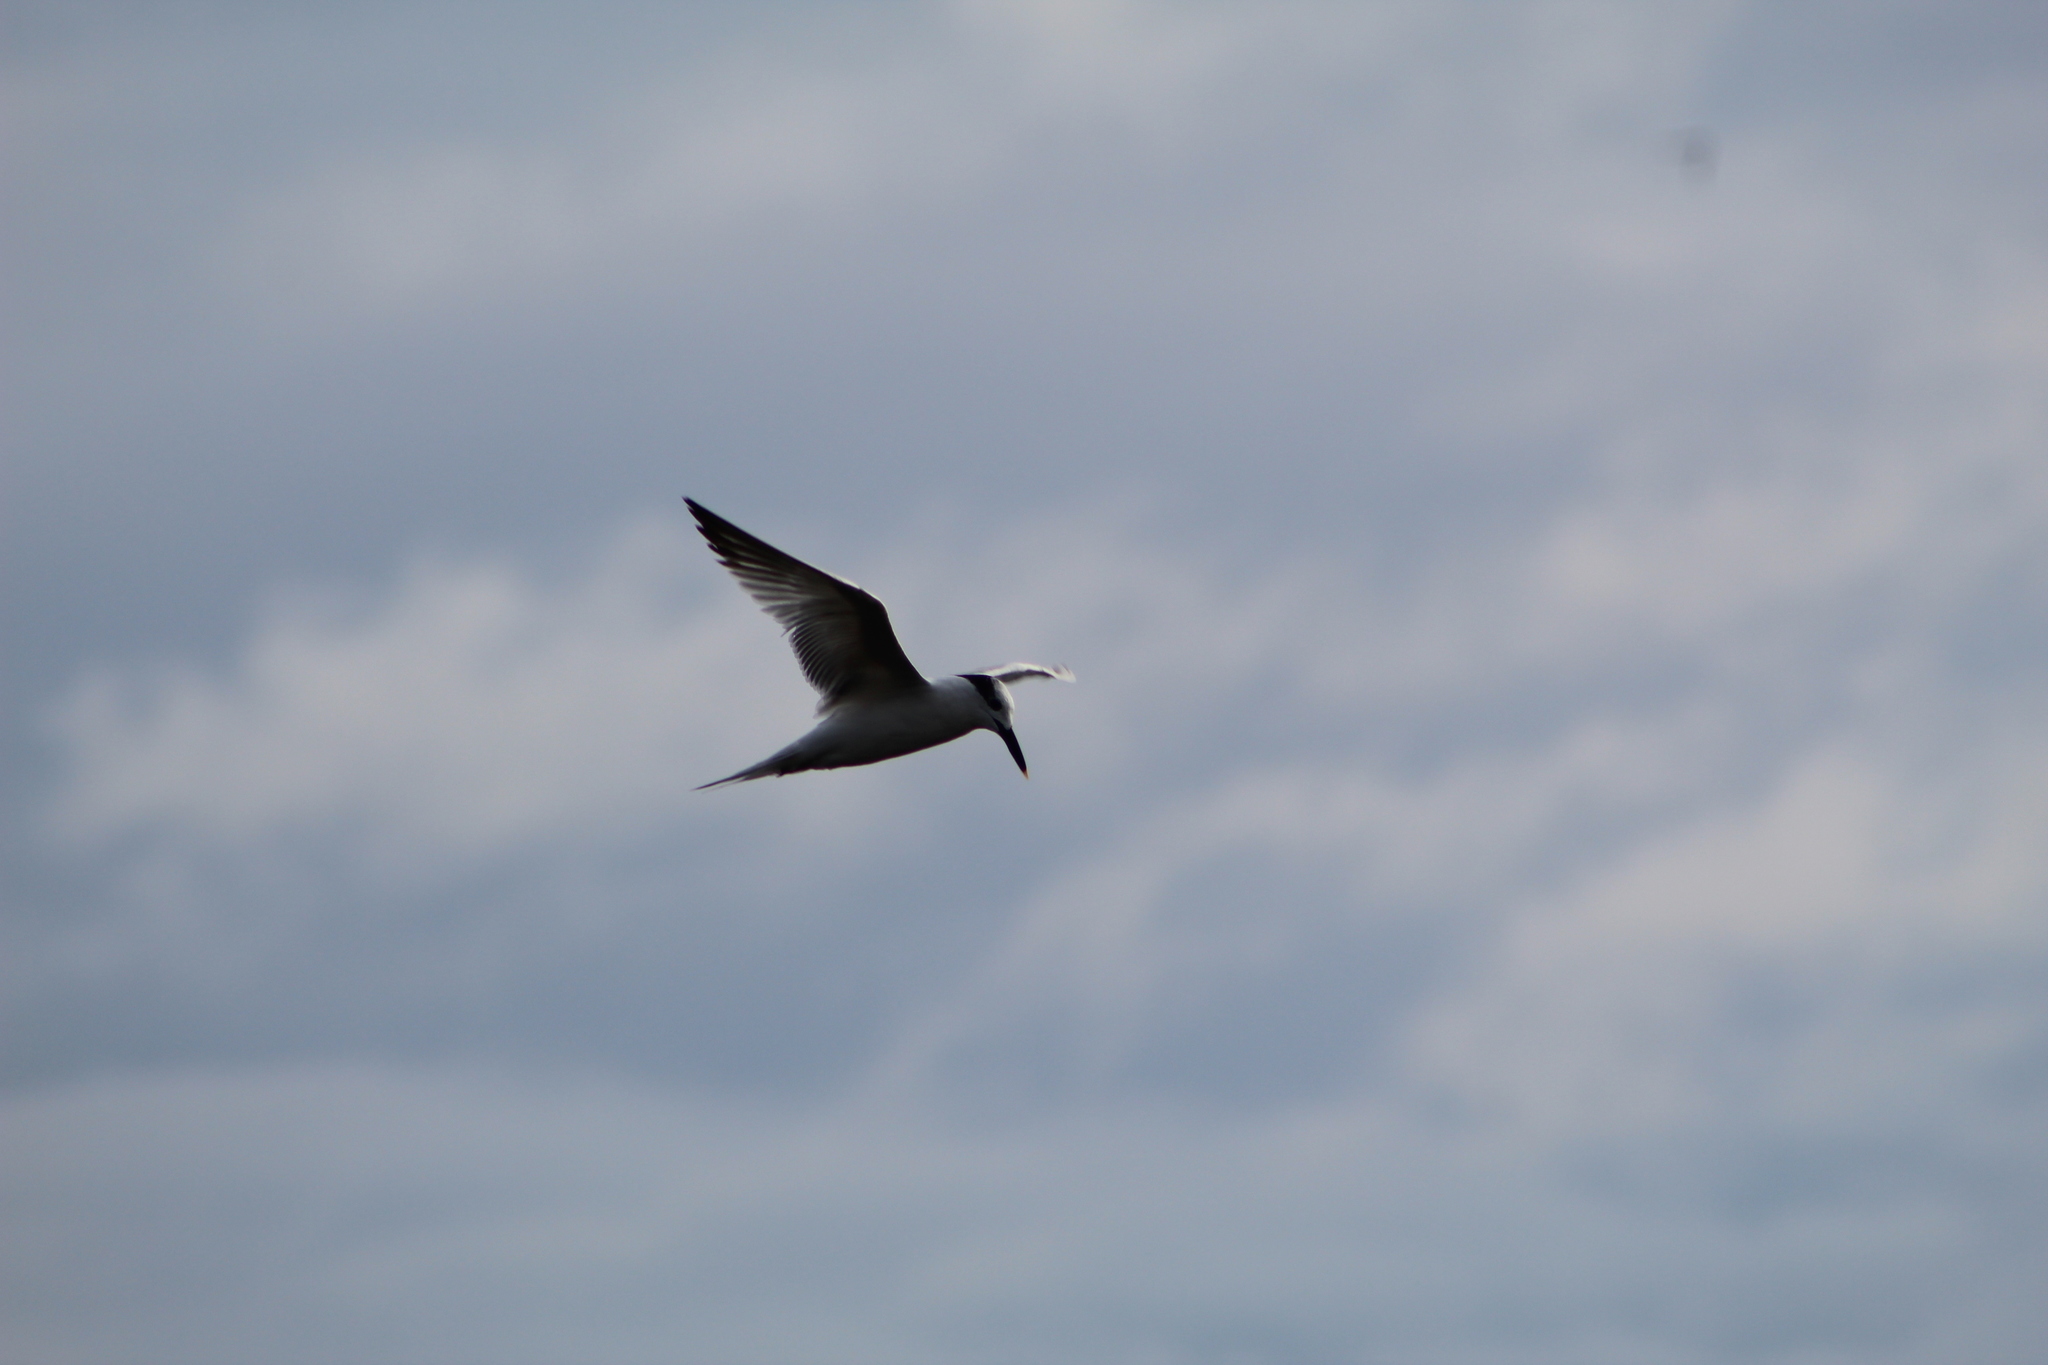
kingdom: Animalia
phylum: Chordata
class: Aves
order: Charadriiformes
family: Laridae
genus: Thalasseus
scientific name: Thalasseus sandvicensis
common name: Sandwich tern
